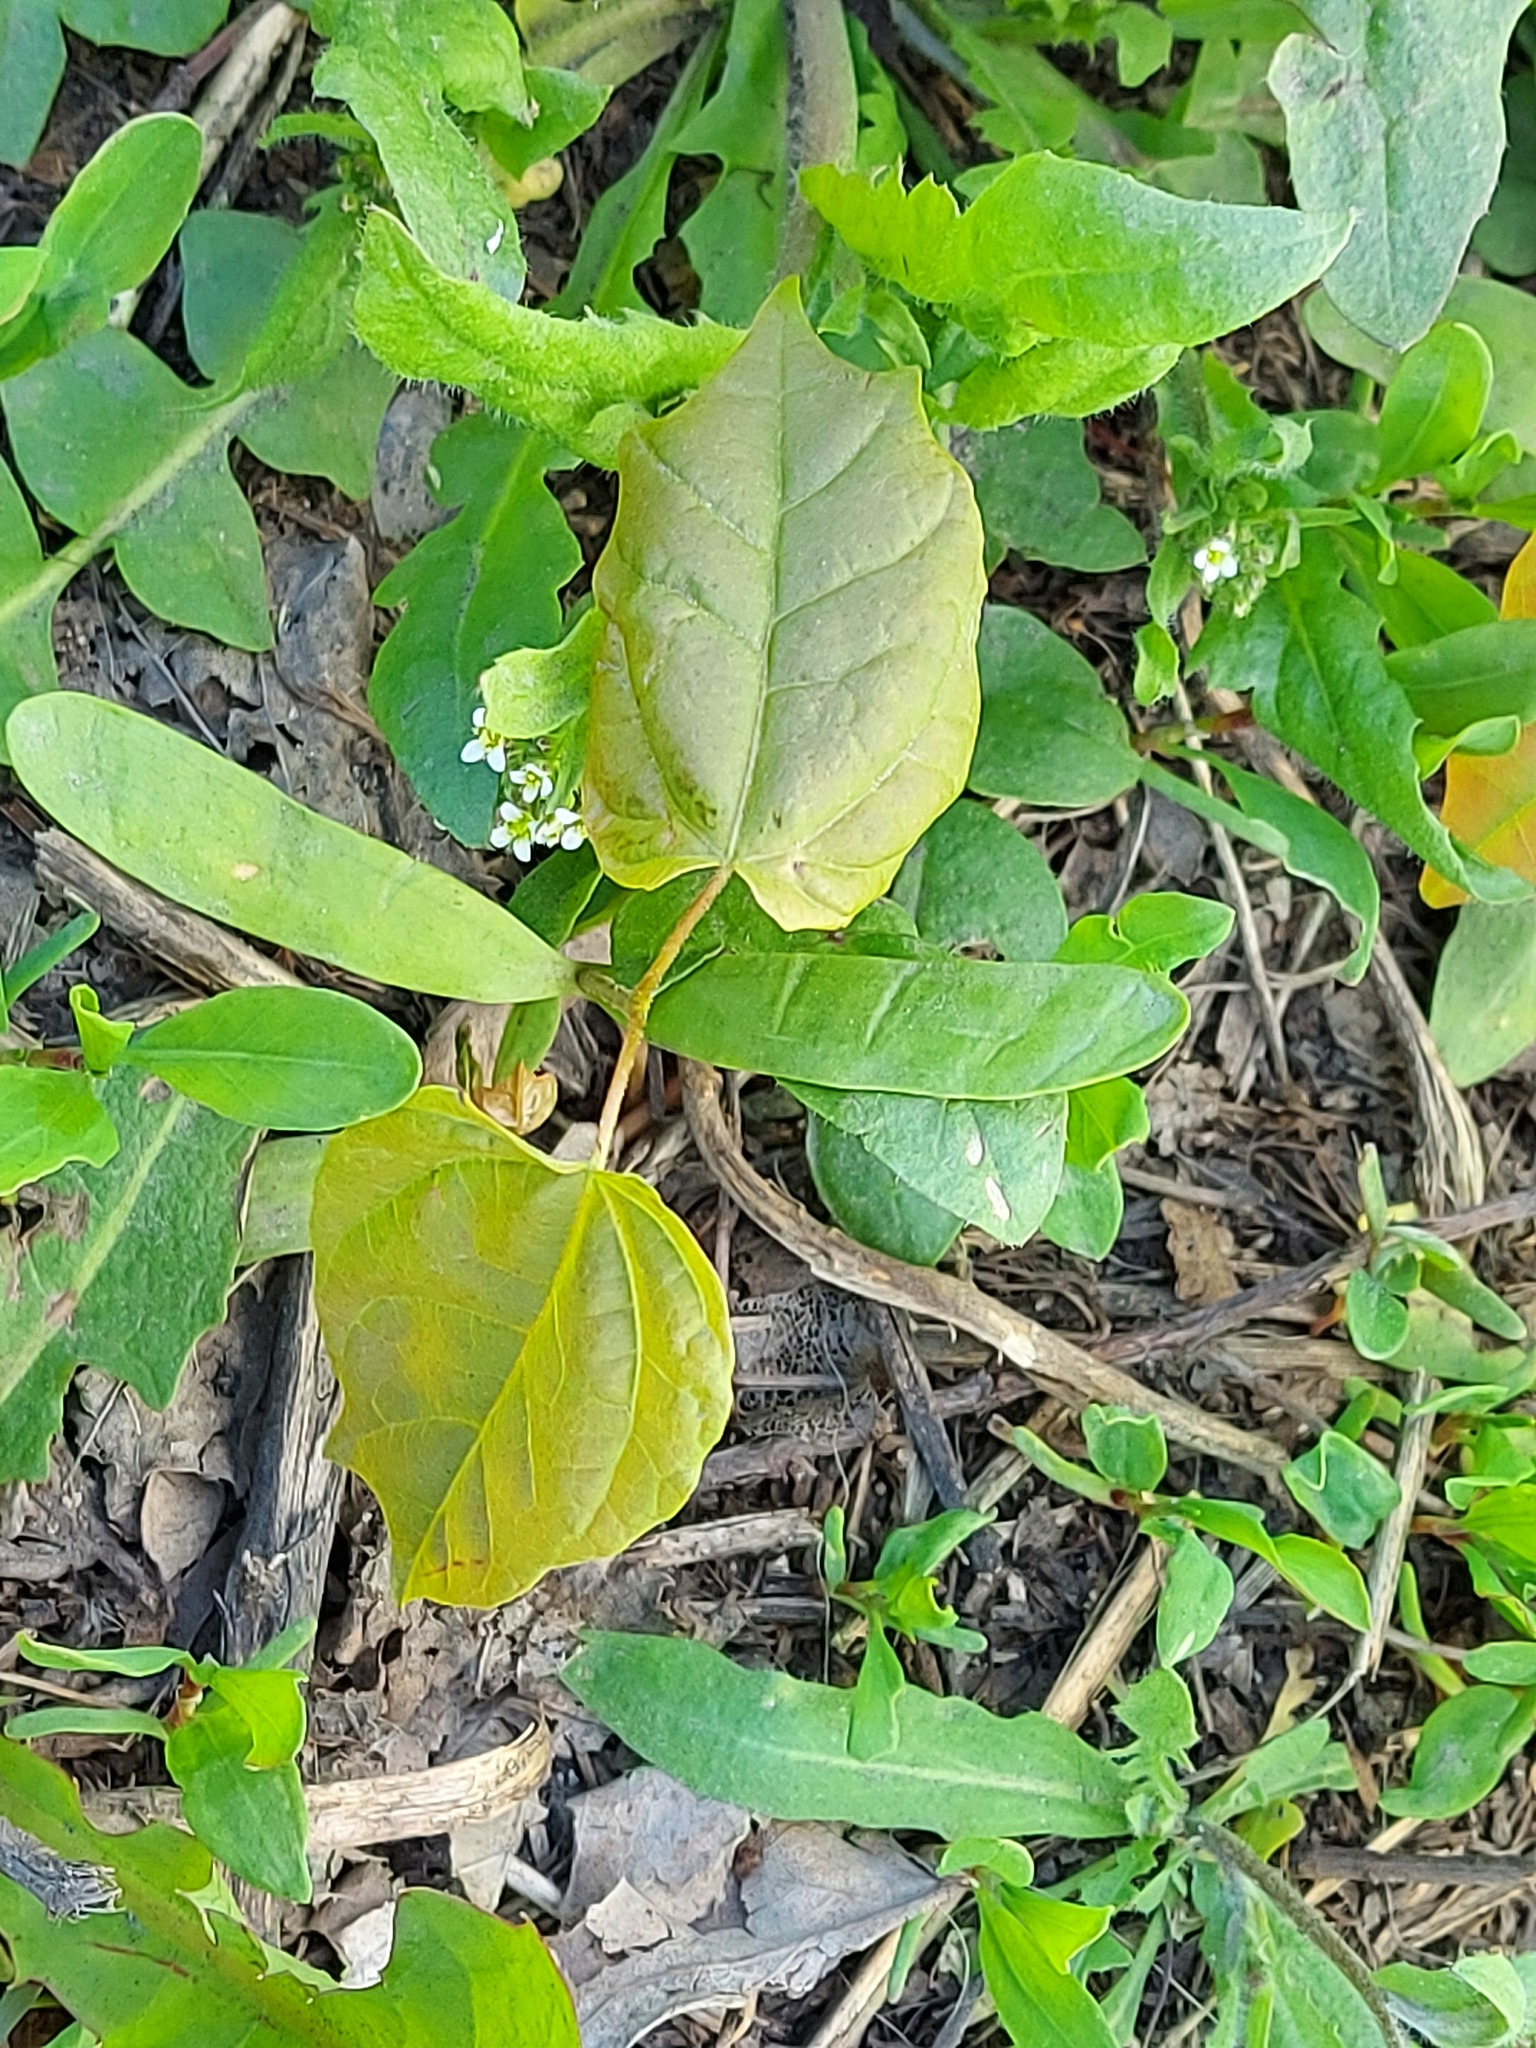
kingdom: Plantae
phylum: Tracheophyta
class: Magnoliopsida
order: Sapindales
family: Sapindaceae
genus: Acer
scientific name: Acer platanoides
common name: Norway maple
